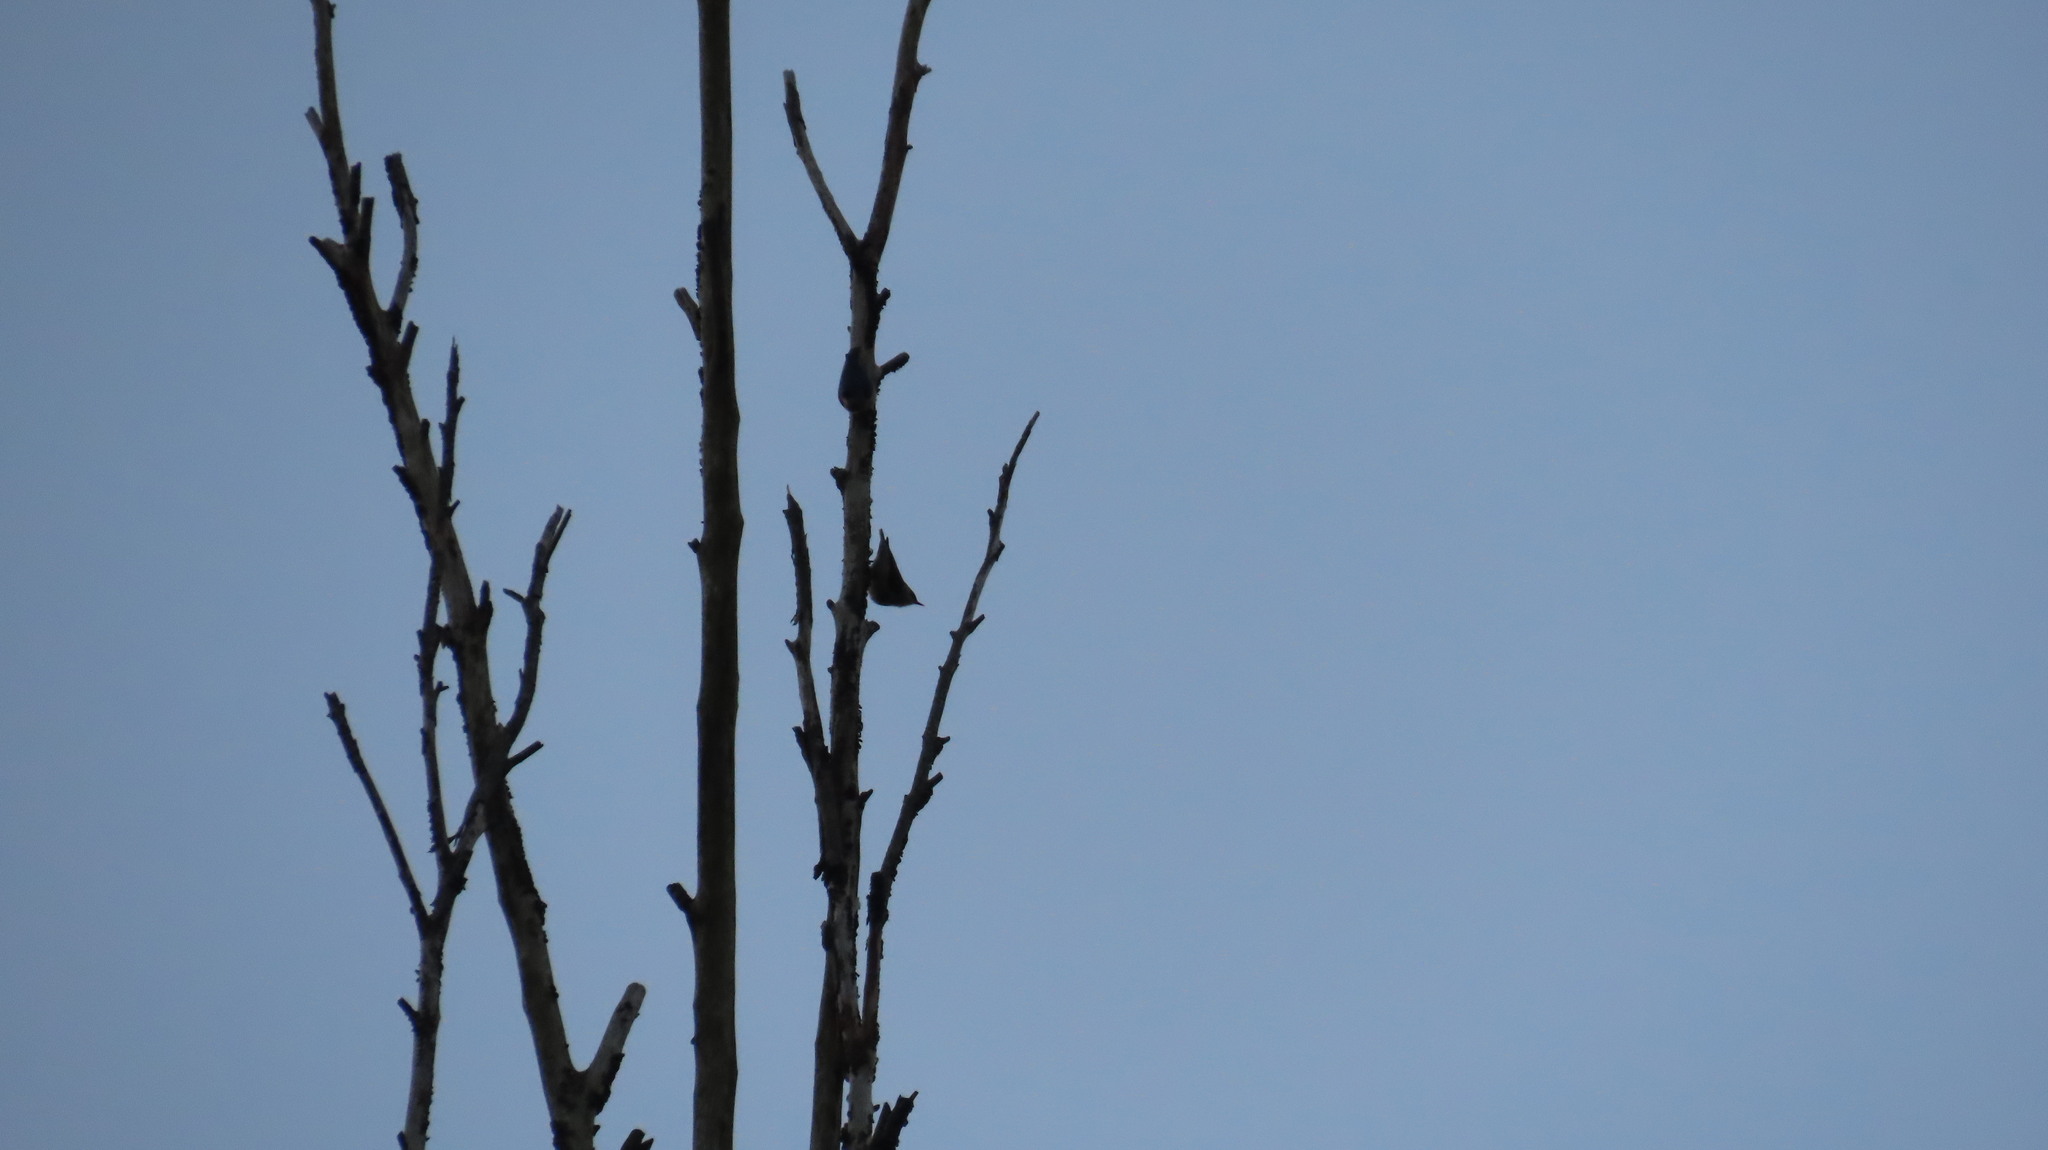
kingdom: Animalia
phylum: Chordata
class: Aves
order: Passeriformes
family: Sittidae
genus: Sitta
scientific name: Sitta frontalis
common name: Velvet-fronted nuthatch
